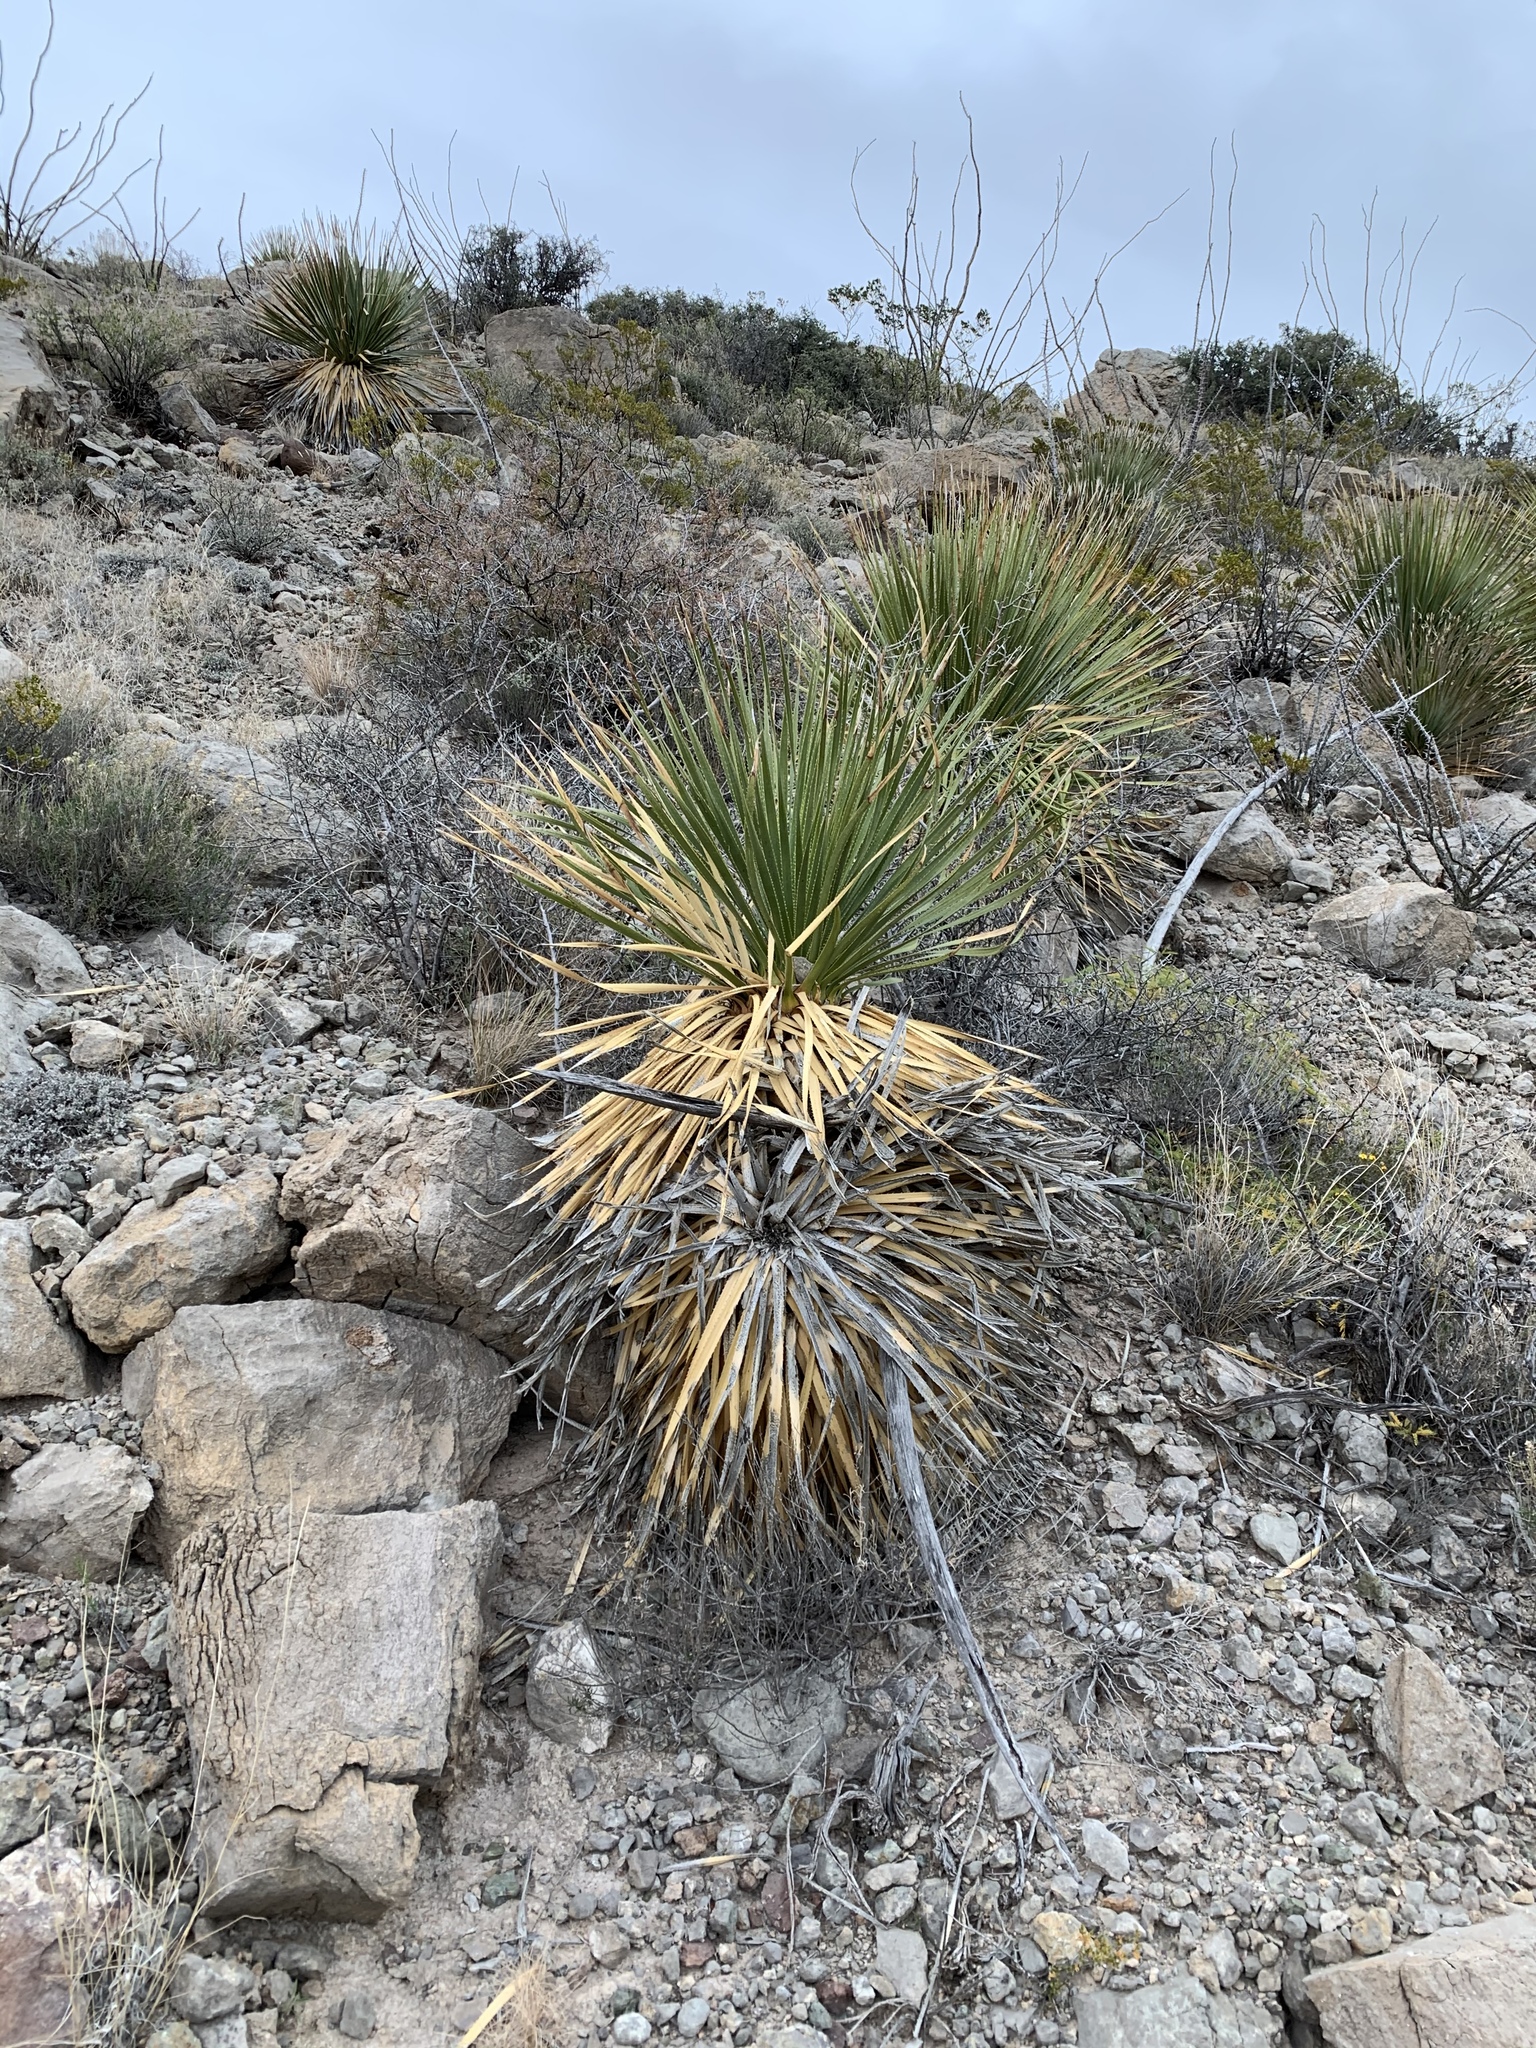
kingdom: Plantae
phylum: Tracheophyta
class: Liliopsida
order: Asparagales
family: Asparagaceae
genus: Dasylirion
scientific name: Dasylirion wheeleri
